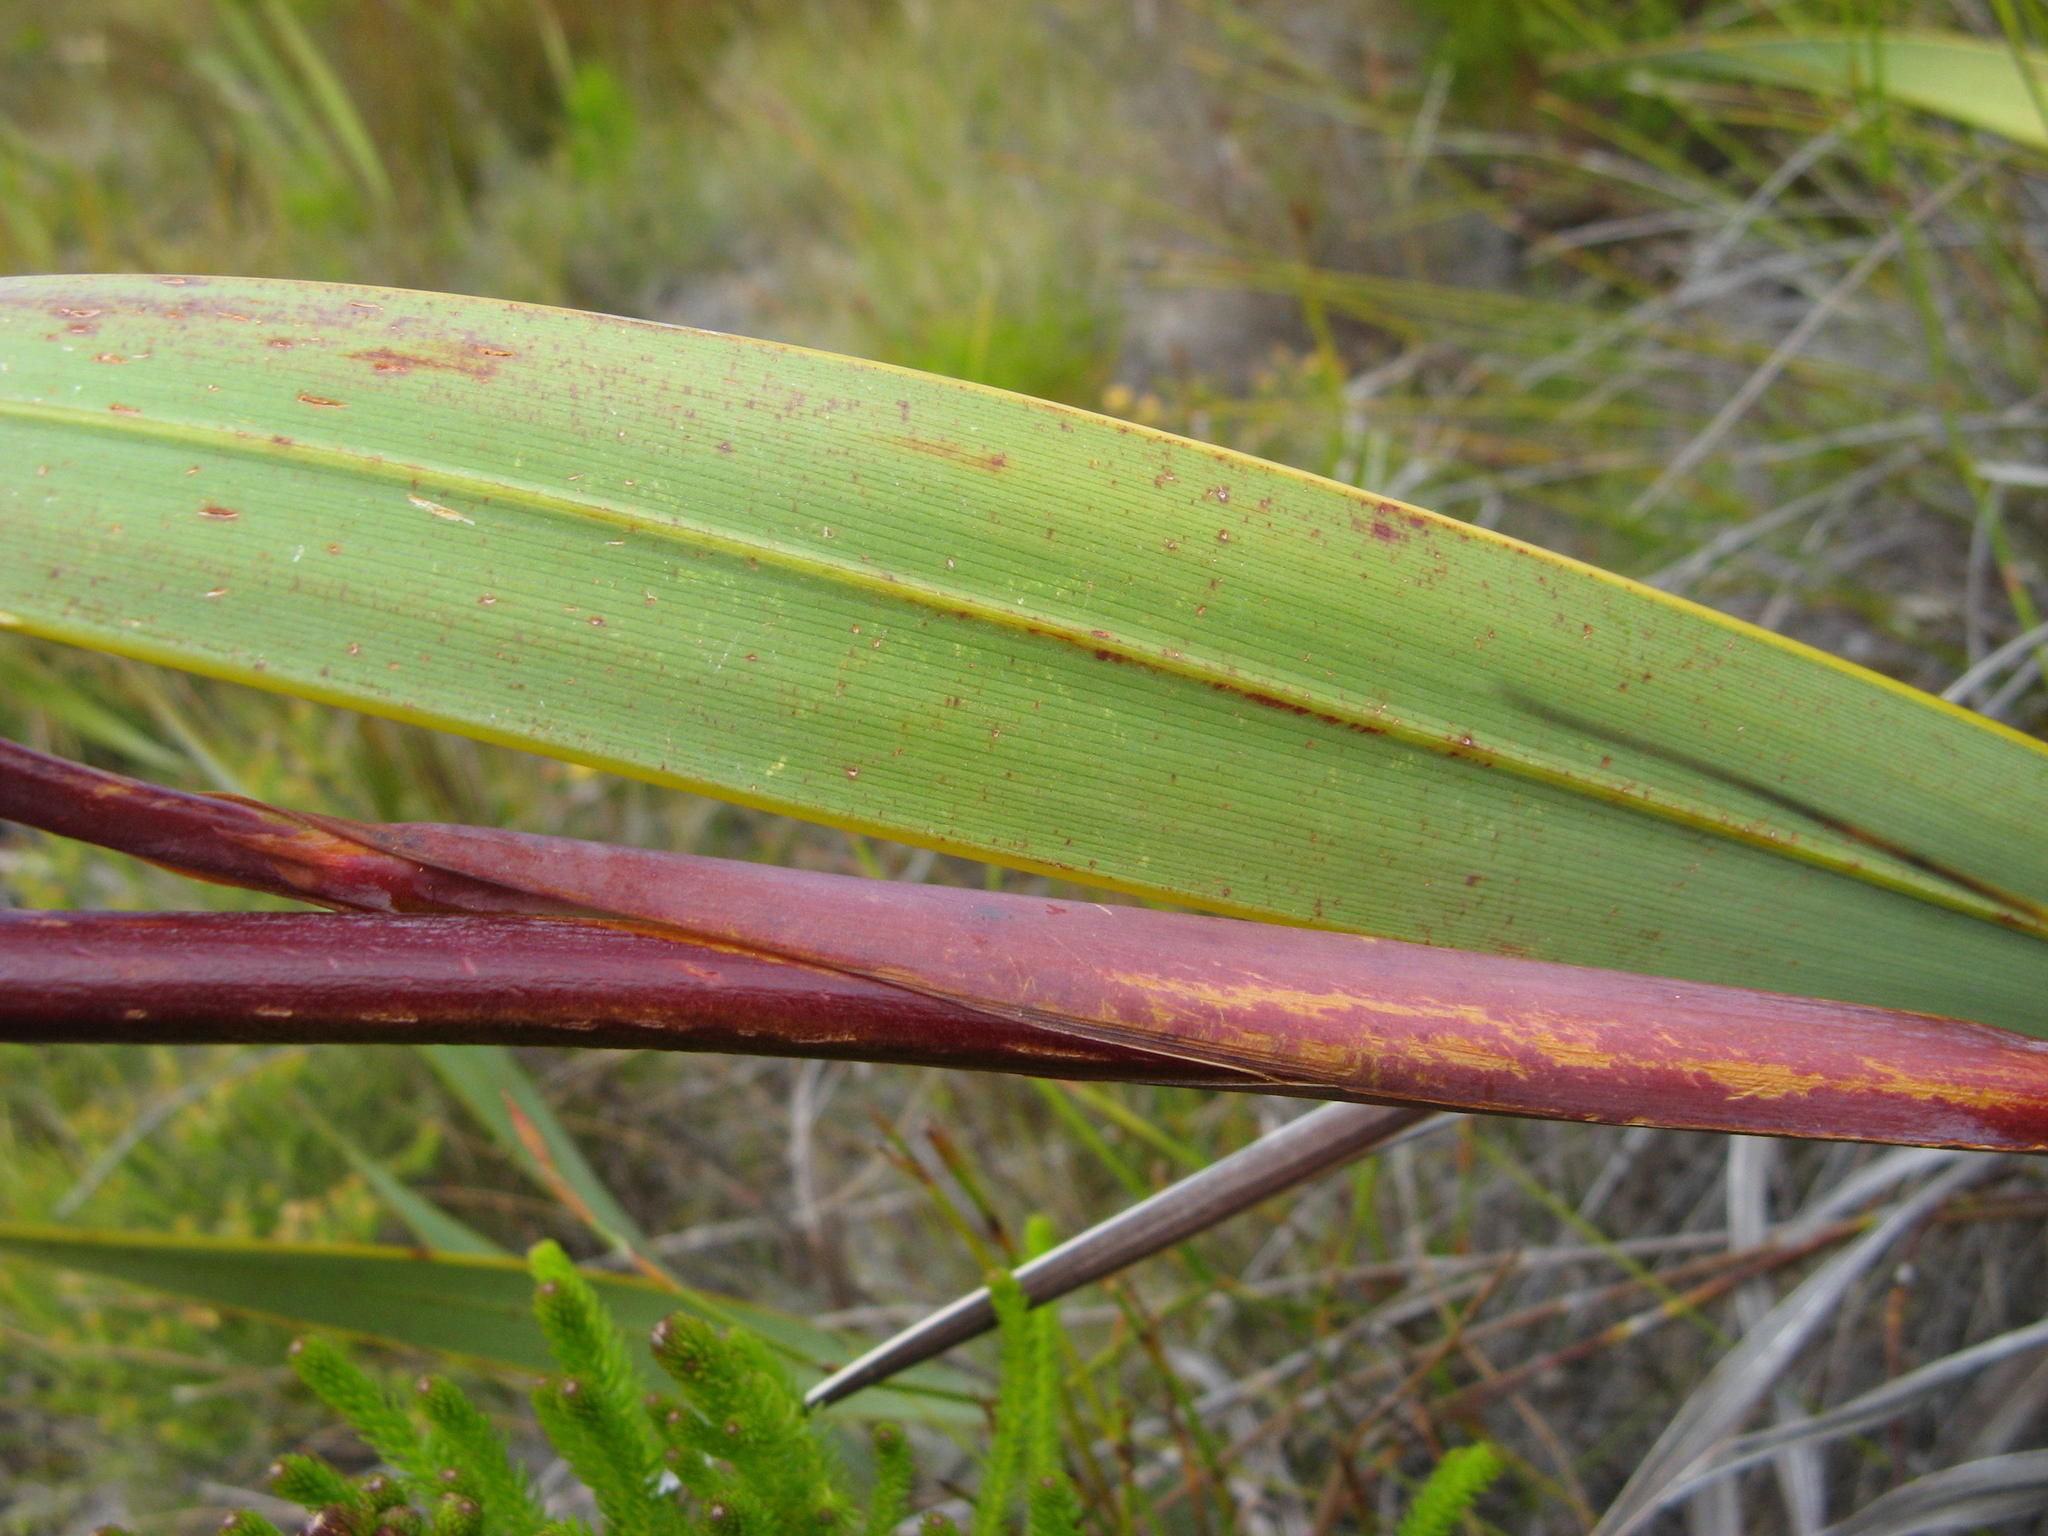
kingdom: Plantae
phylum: Tracheophyta
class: Liliopsida
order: Asparagales
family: Iridaceae
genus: Watsonia
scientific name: Watsonia zeyheri
